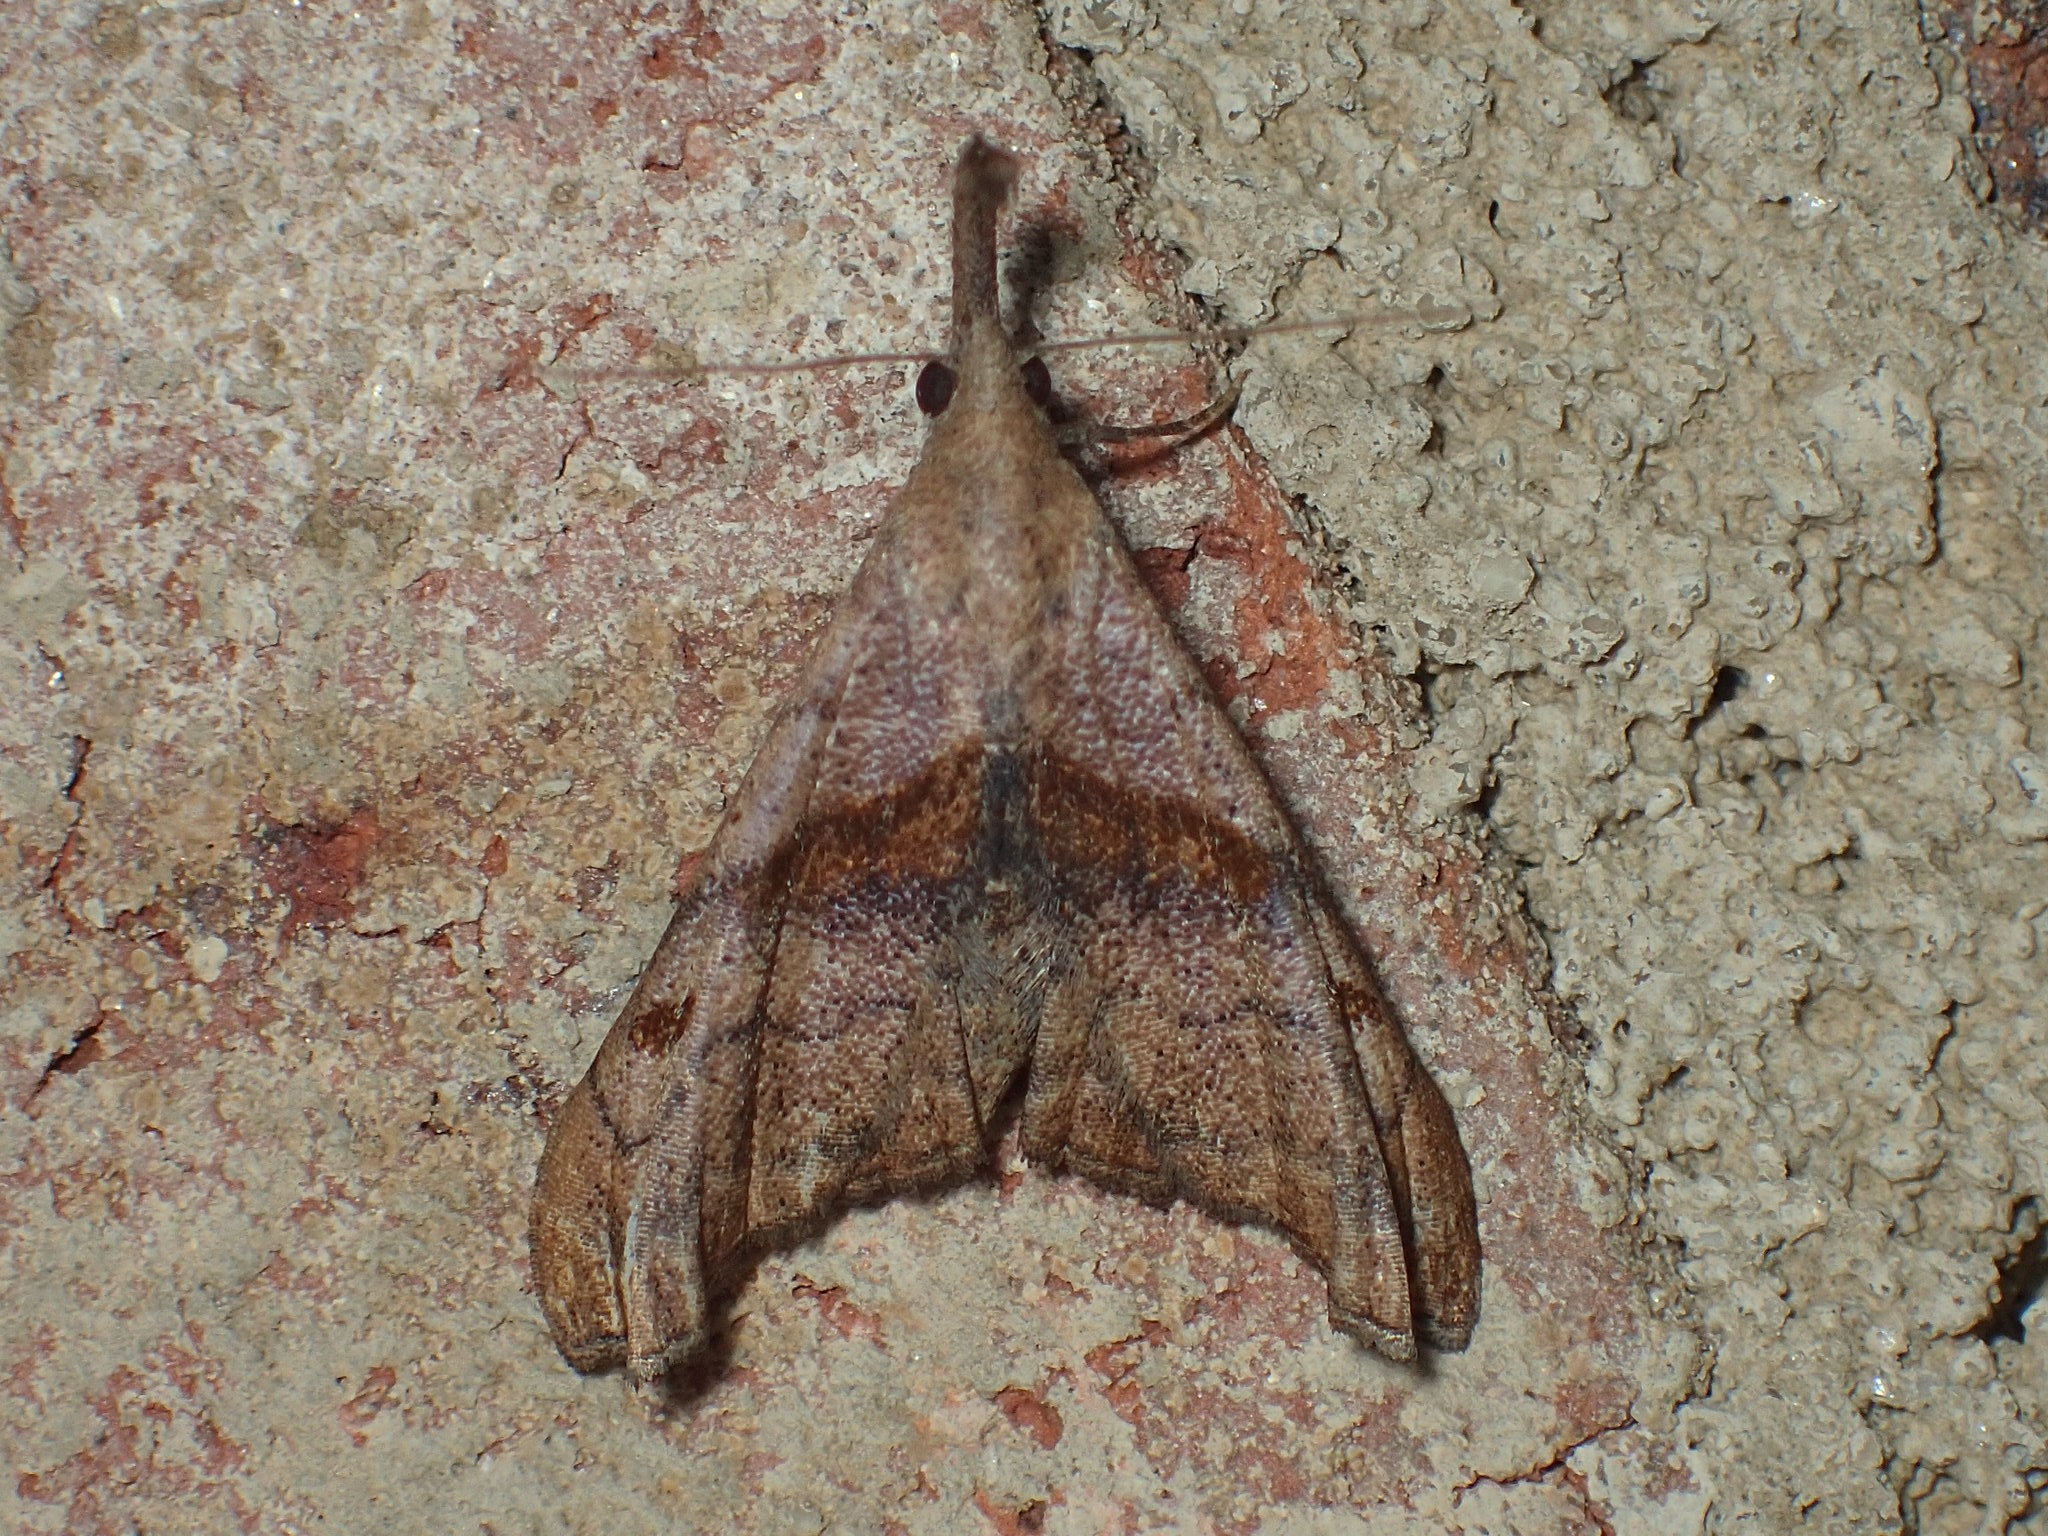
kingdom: Animalia
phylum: Arthropoda
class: Insecta
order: Lepidoptera
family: Erebidae
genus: Palthis
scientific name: Palthis angulalis
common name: Dark-spotted palthis moth
